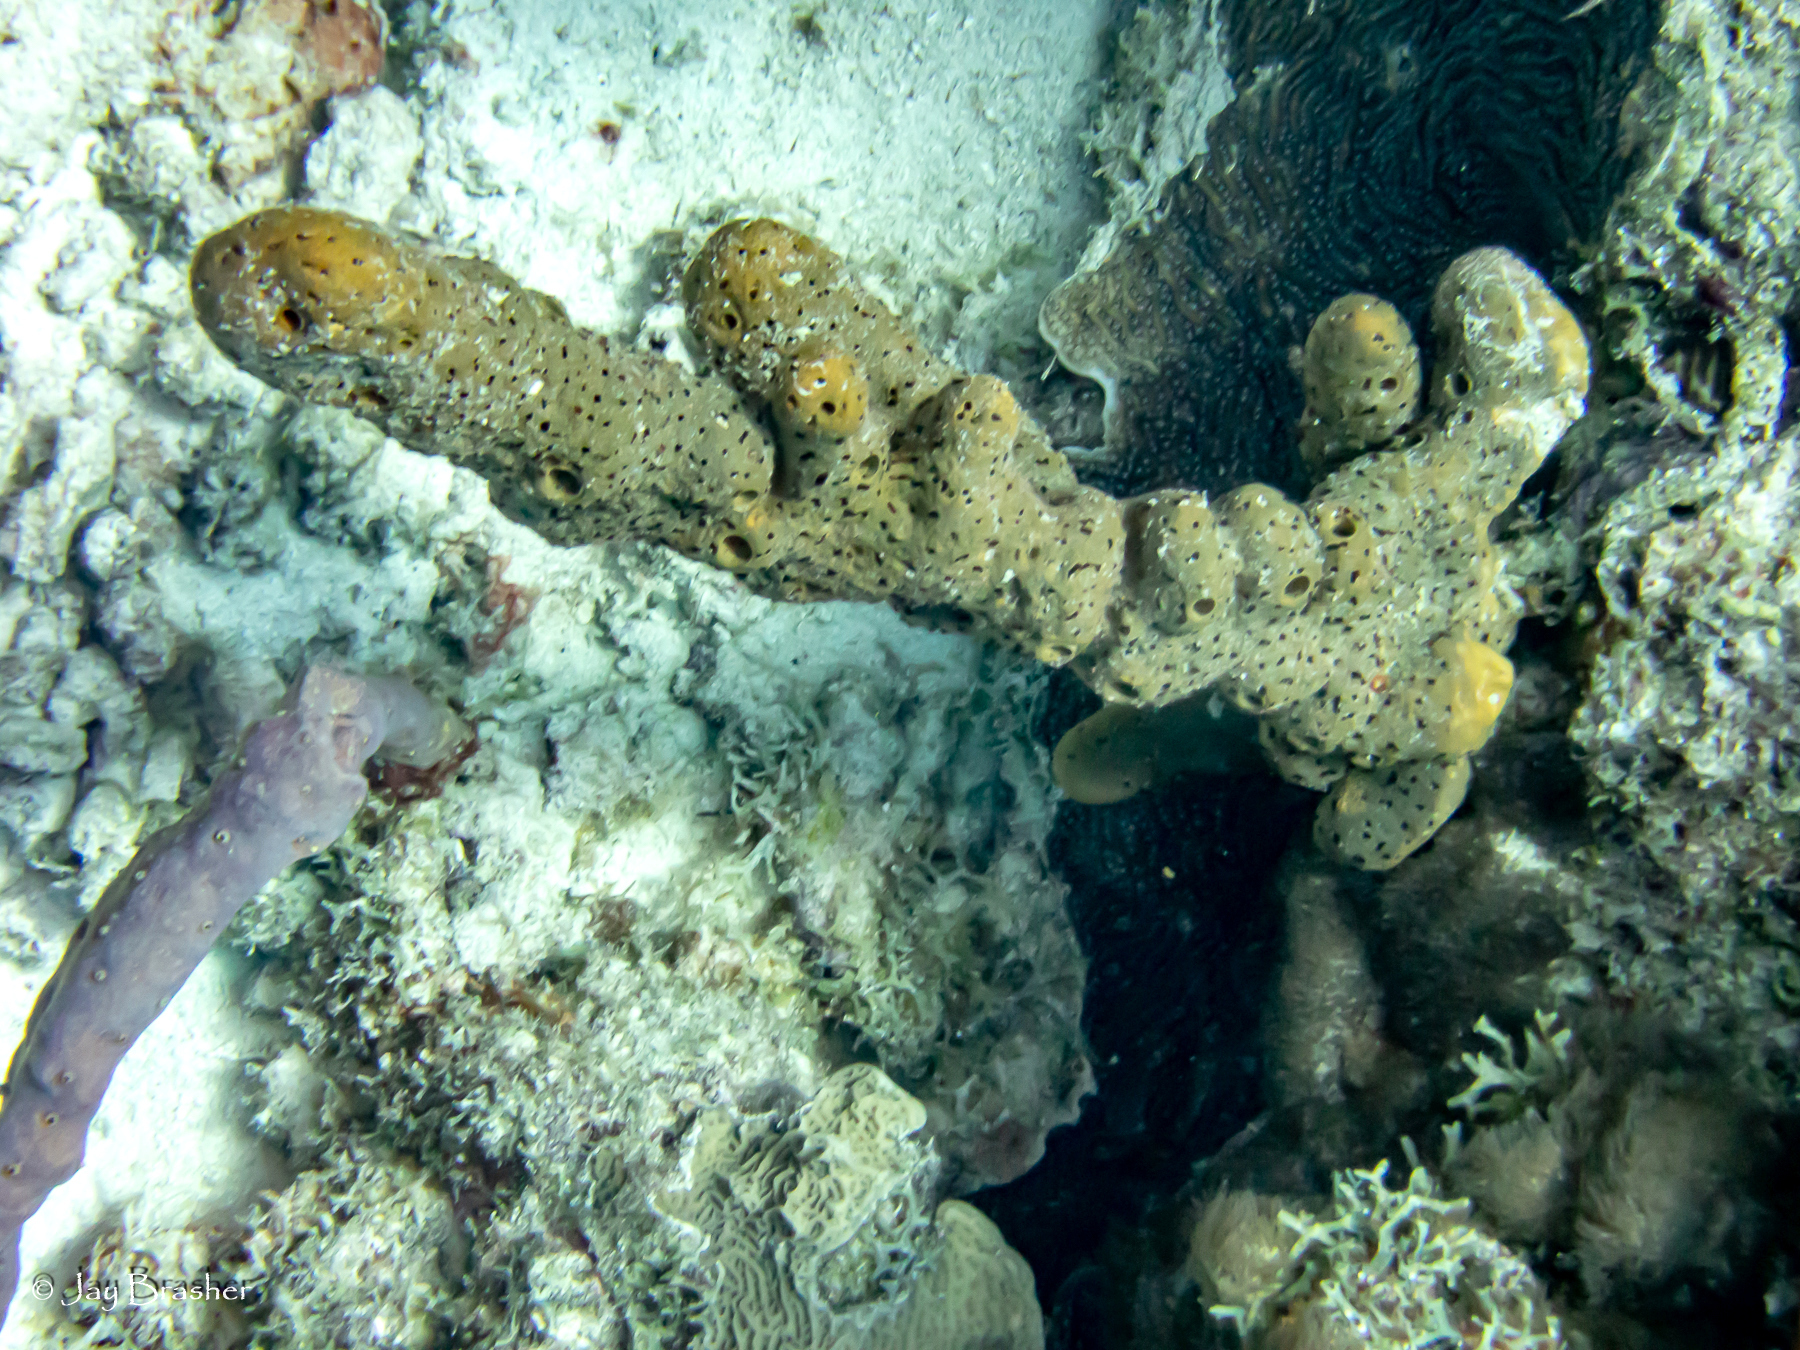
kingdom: Animalia
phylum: Porifera
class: Demospongiae
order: Agelasida
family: Agelasidae
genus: Agelas
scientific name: Agelas conifera
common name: Brown tube sponge
